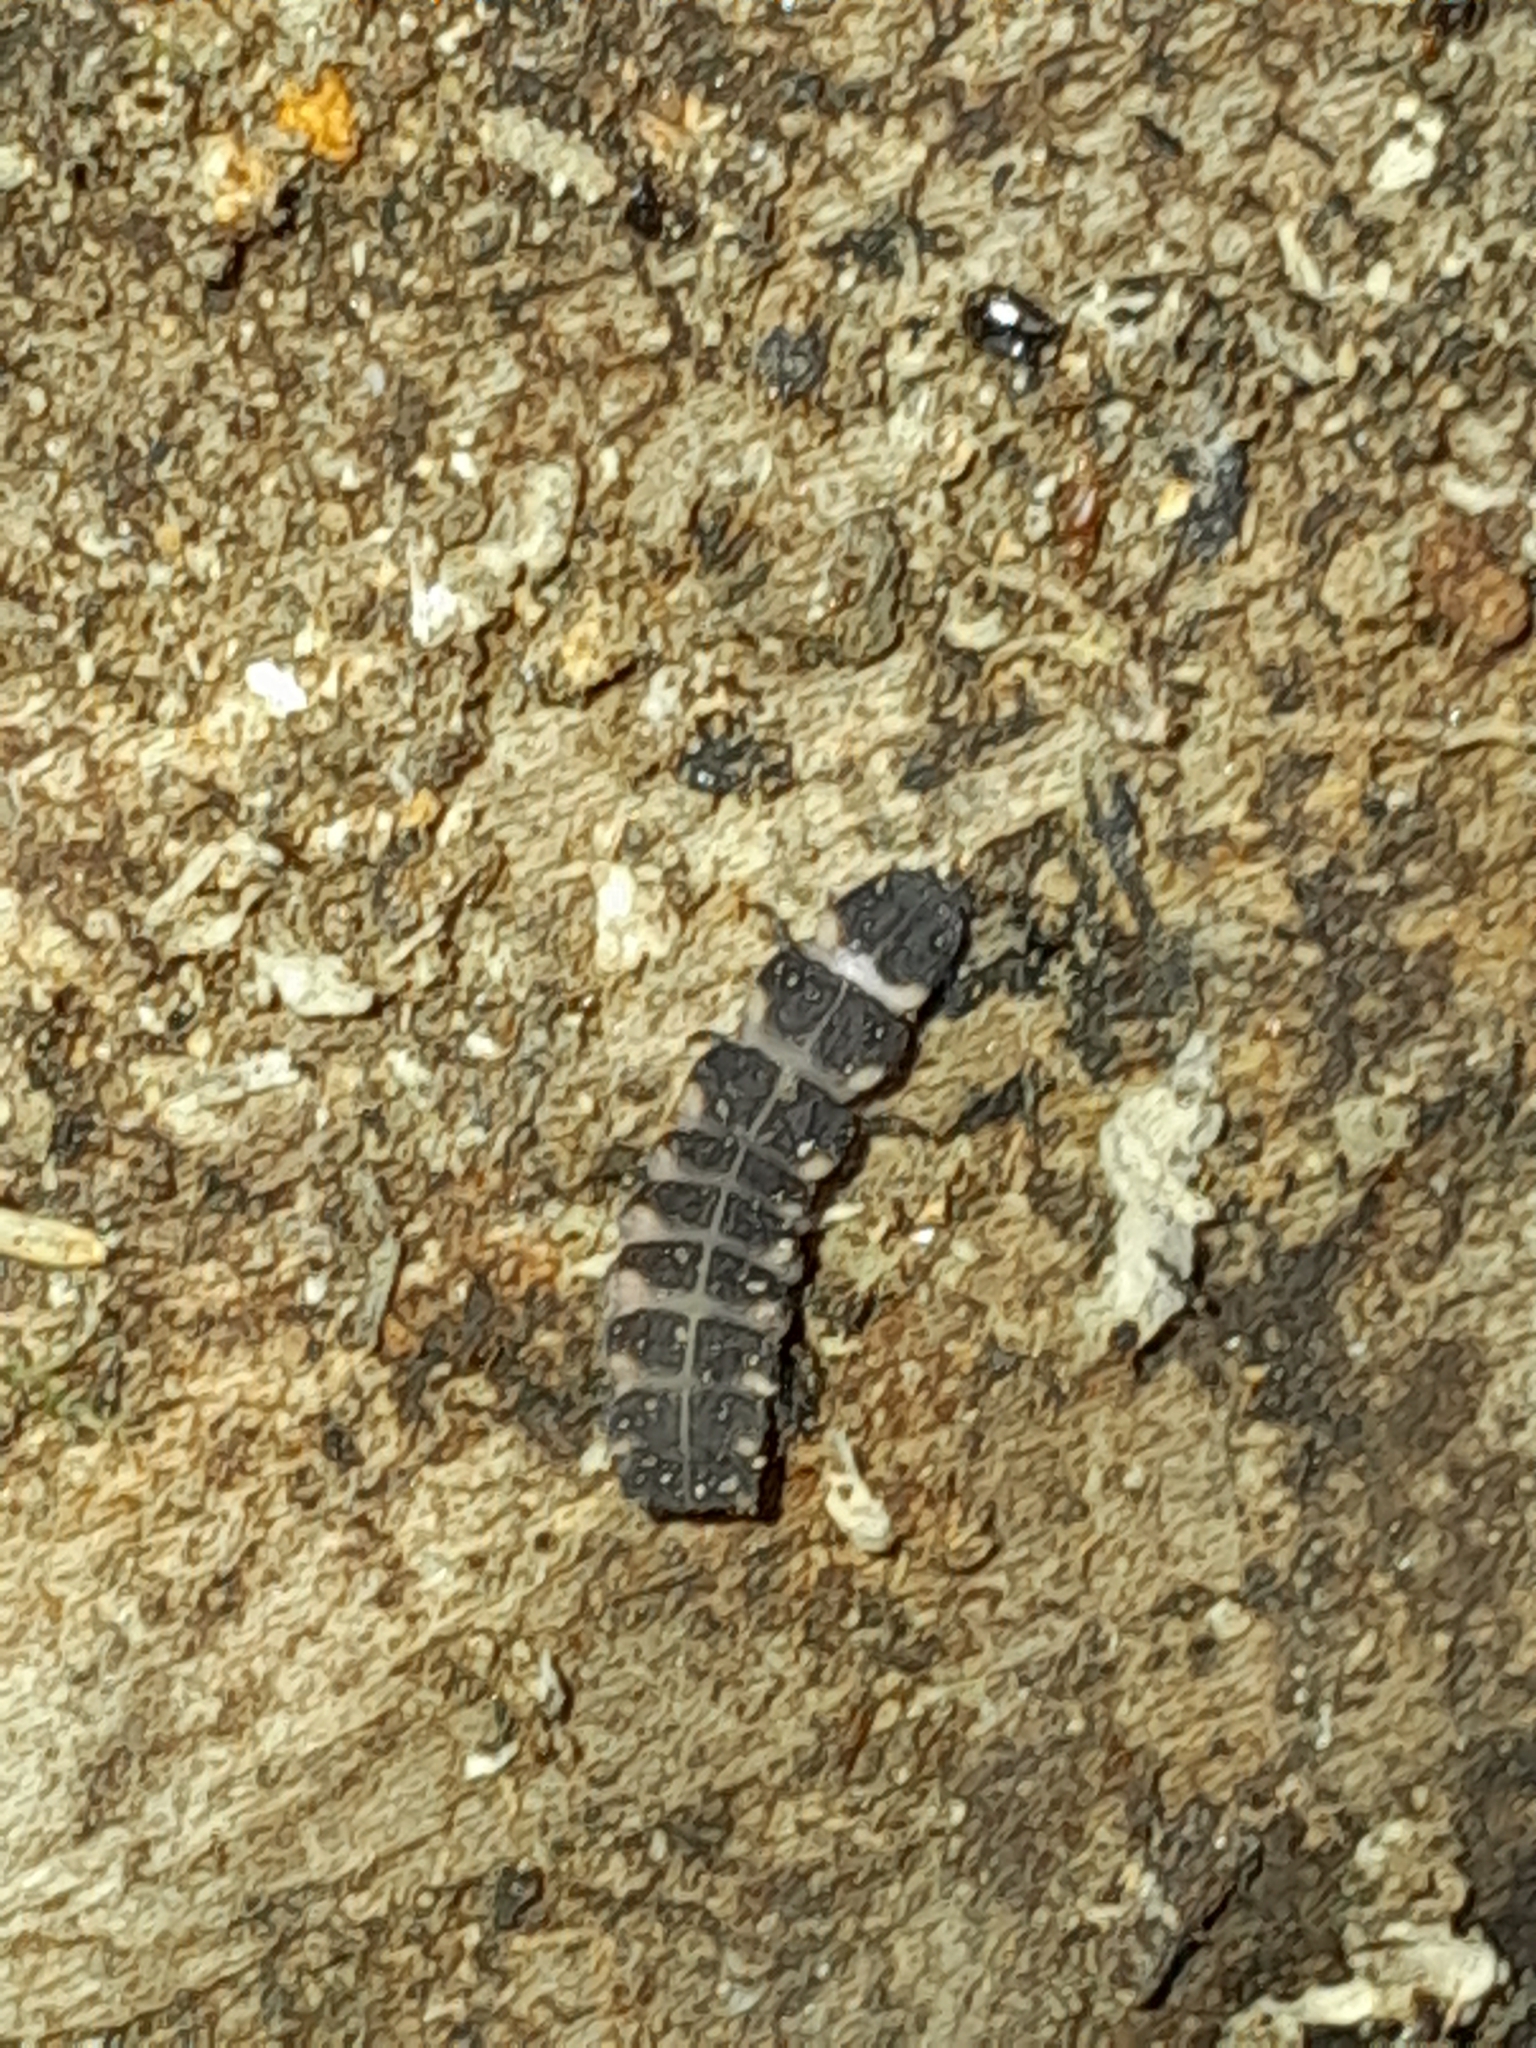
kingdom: Animalia
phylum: Arthropoda
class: Insecta
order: Coleoptera
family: Lampyridae
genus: Lampyris
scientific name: Lampyris noctiluca
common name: Glow-worm
